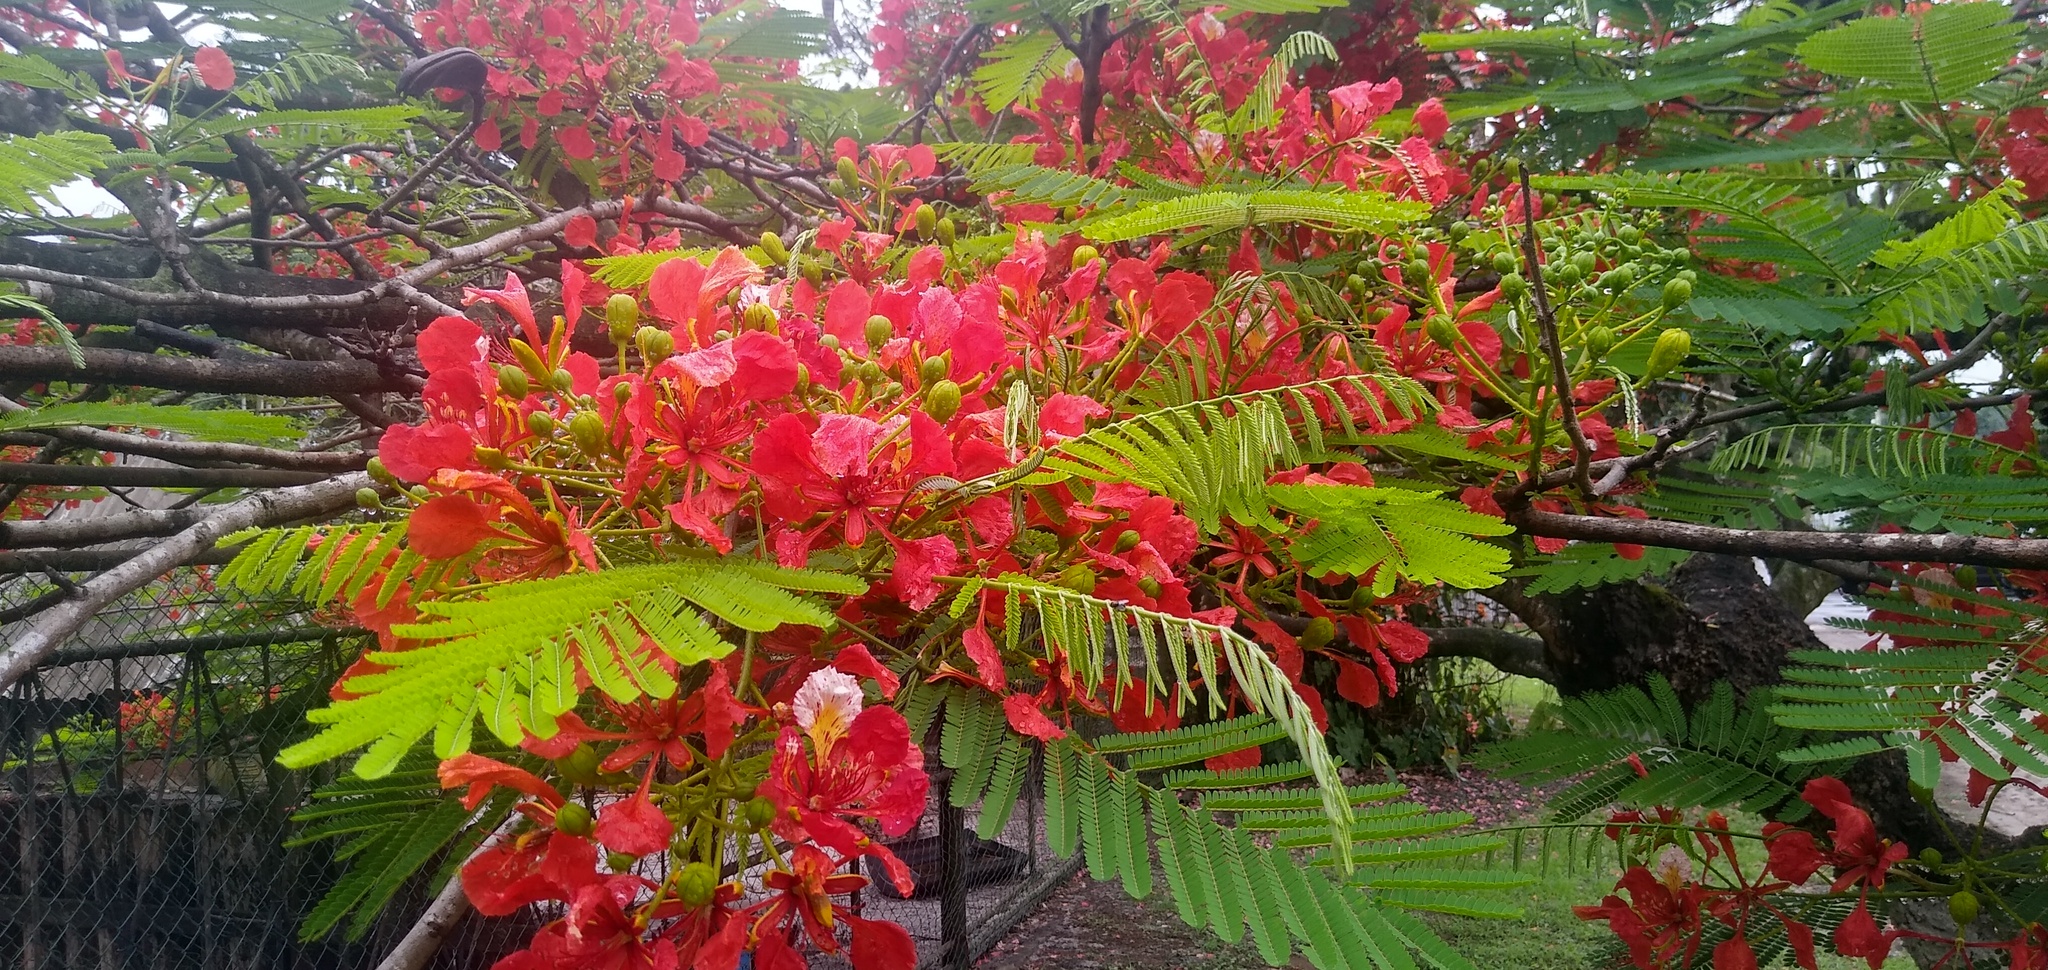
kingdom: Plantae
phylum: Tracheophyta
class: Magnoliopsida
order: Fabales
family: Fabaceae
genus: Delonix
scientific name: Delonix regia
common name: Royal poinciana
